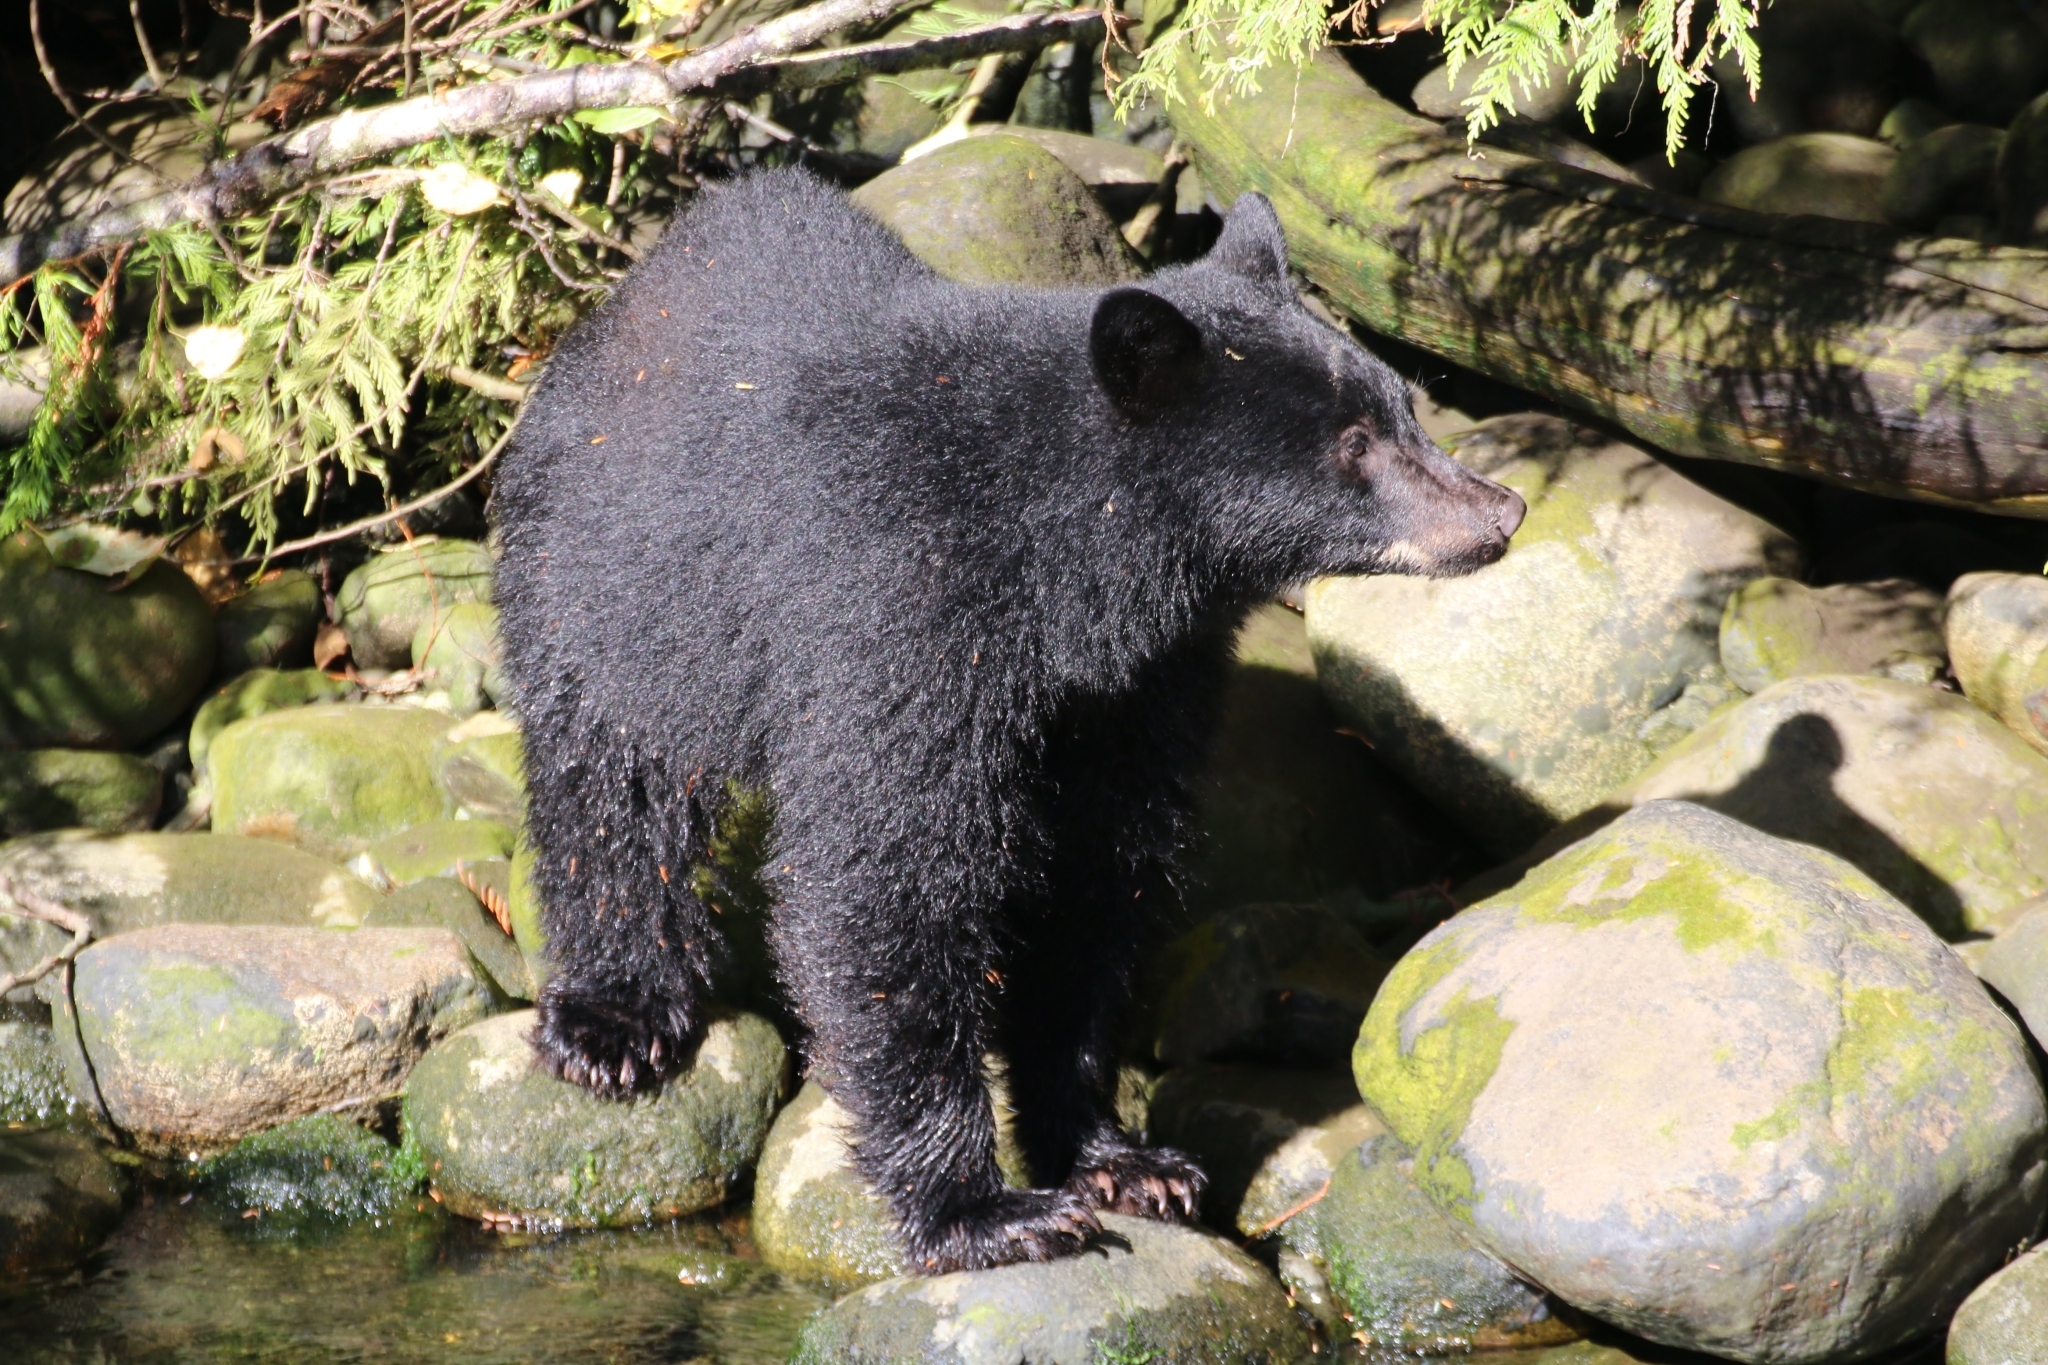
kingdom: Animalia
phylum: Chordata
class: Mammalia
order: Carnivora
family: Ursidae
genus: Ursus
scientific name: Ursus americanus
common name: American black bear
